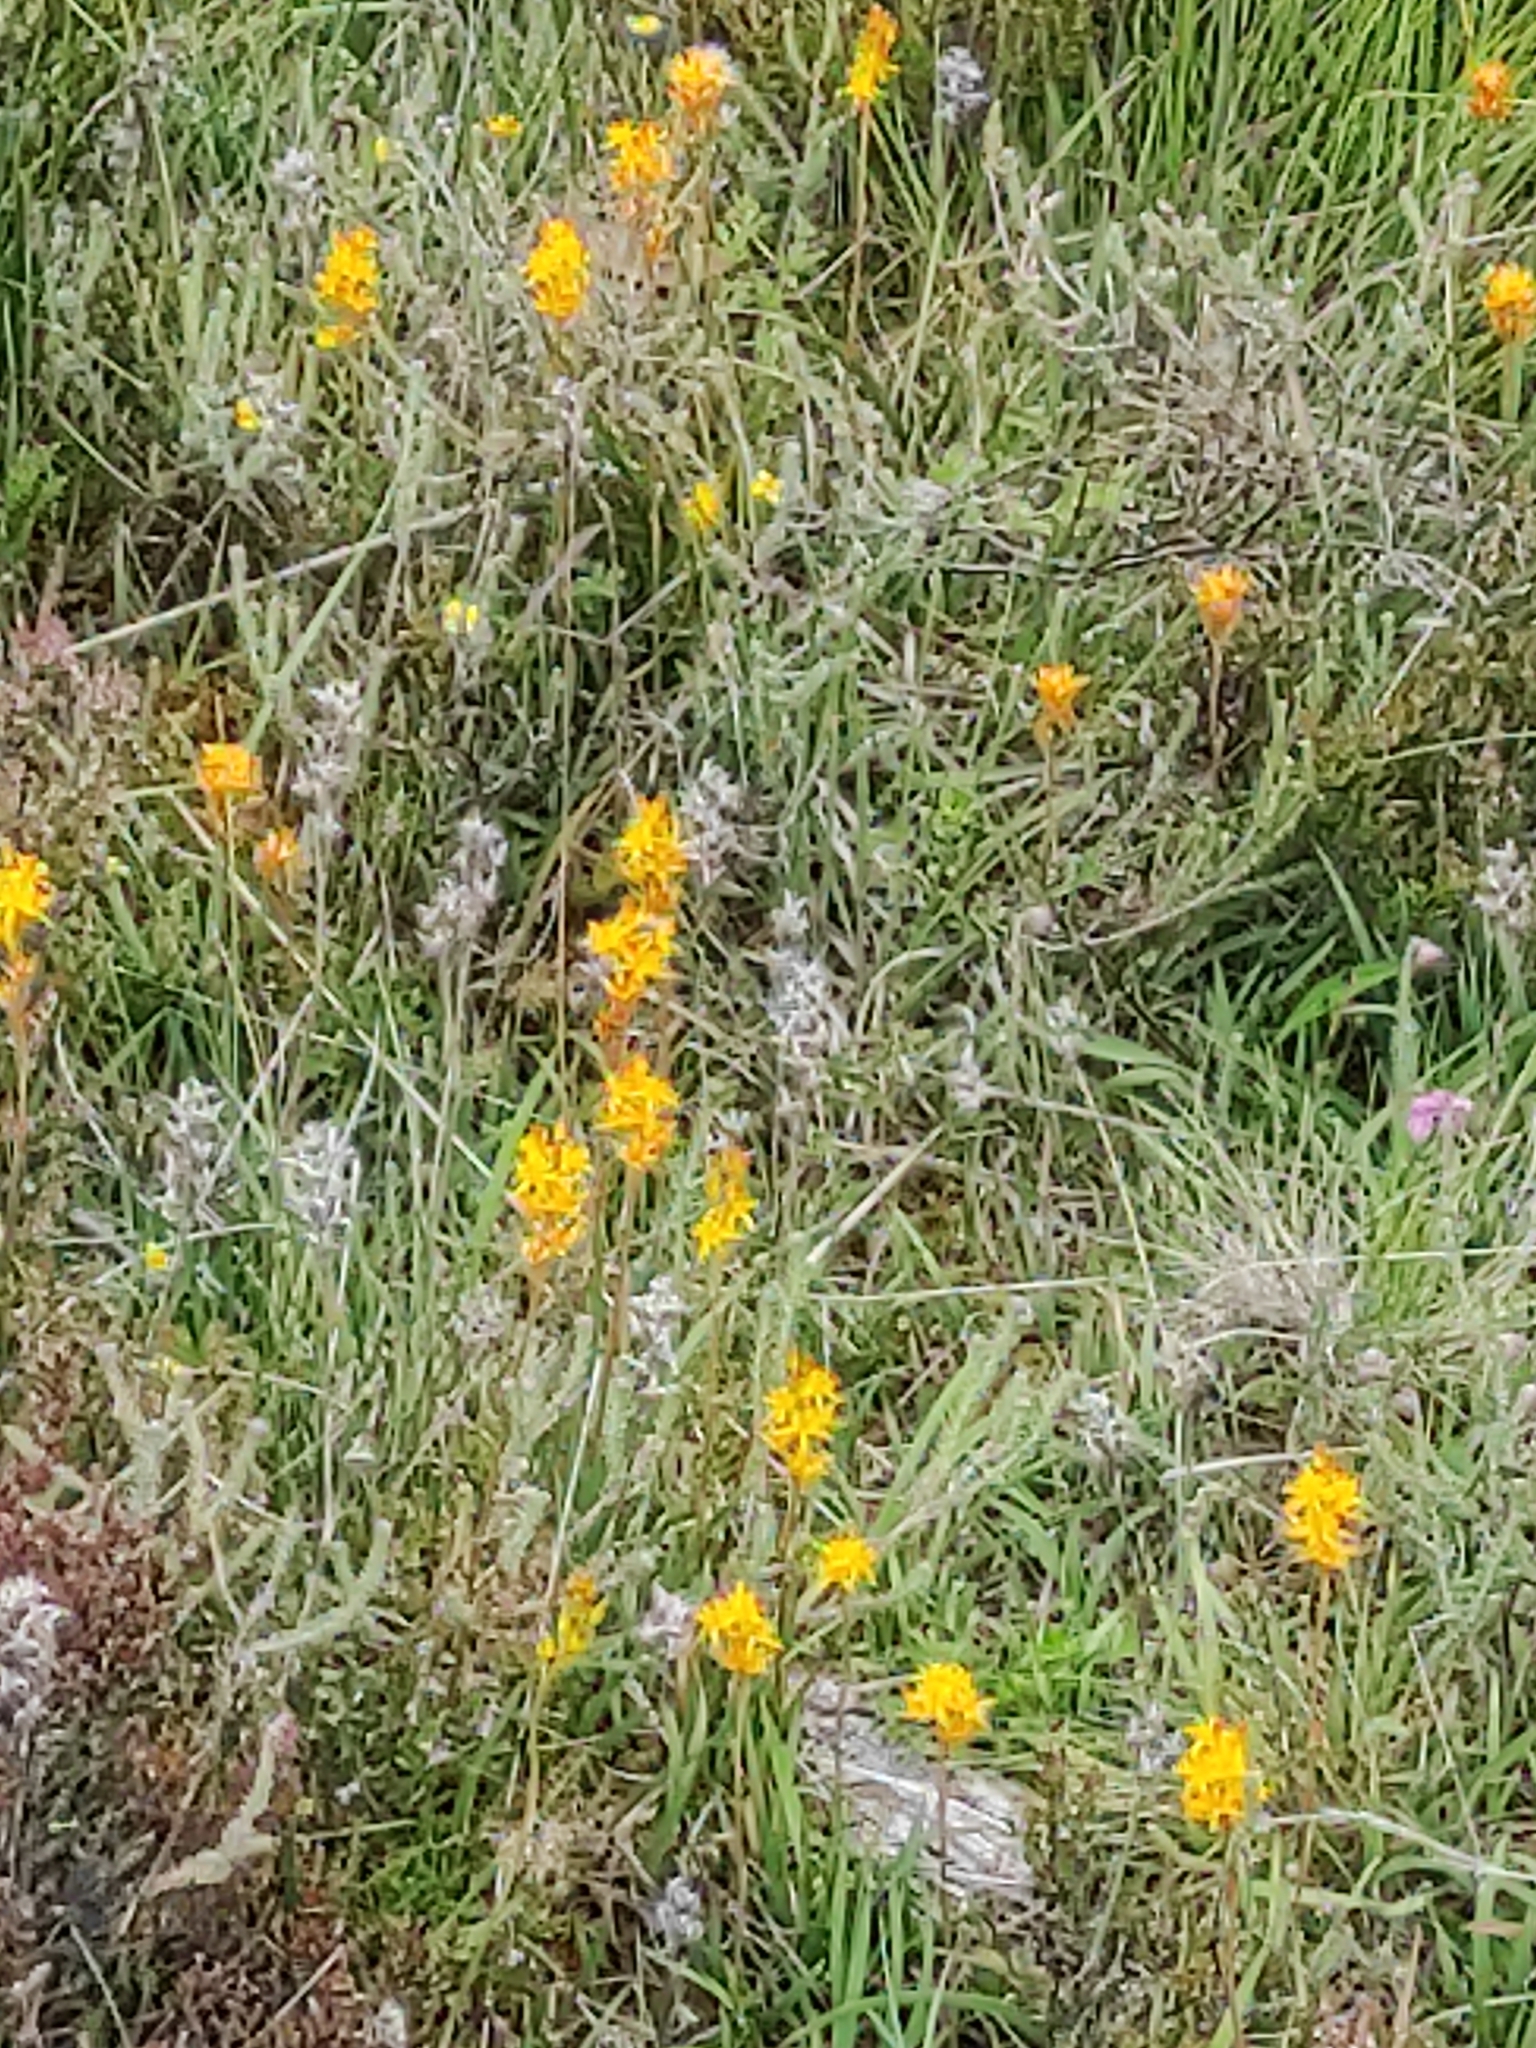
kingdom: Plantae
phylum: Tracheophyta
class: Liliopsida
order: Dioscoreales
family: Nartheciaceae
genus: Narthecium
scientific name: Narthecium ossifragum
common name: Bog asphodel
